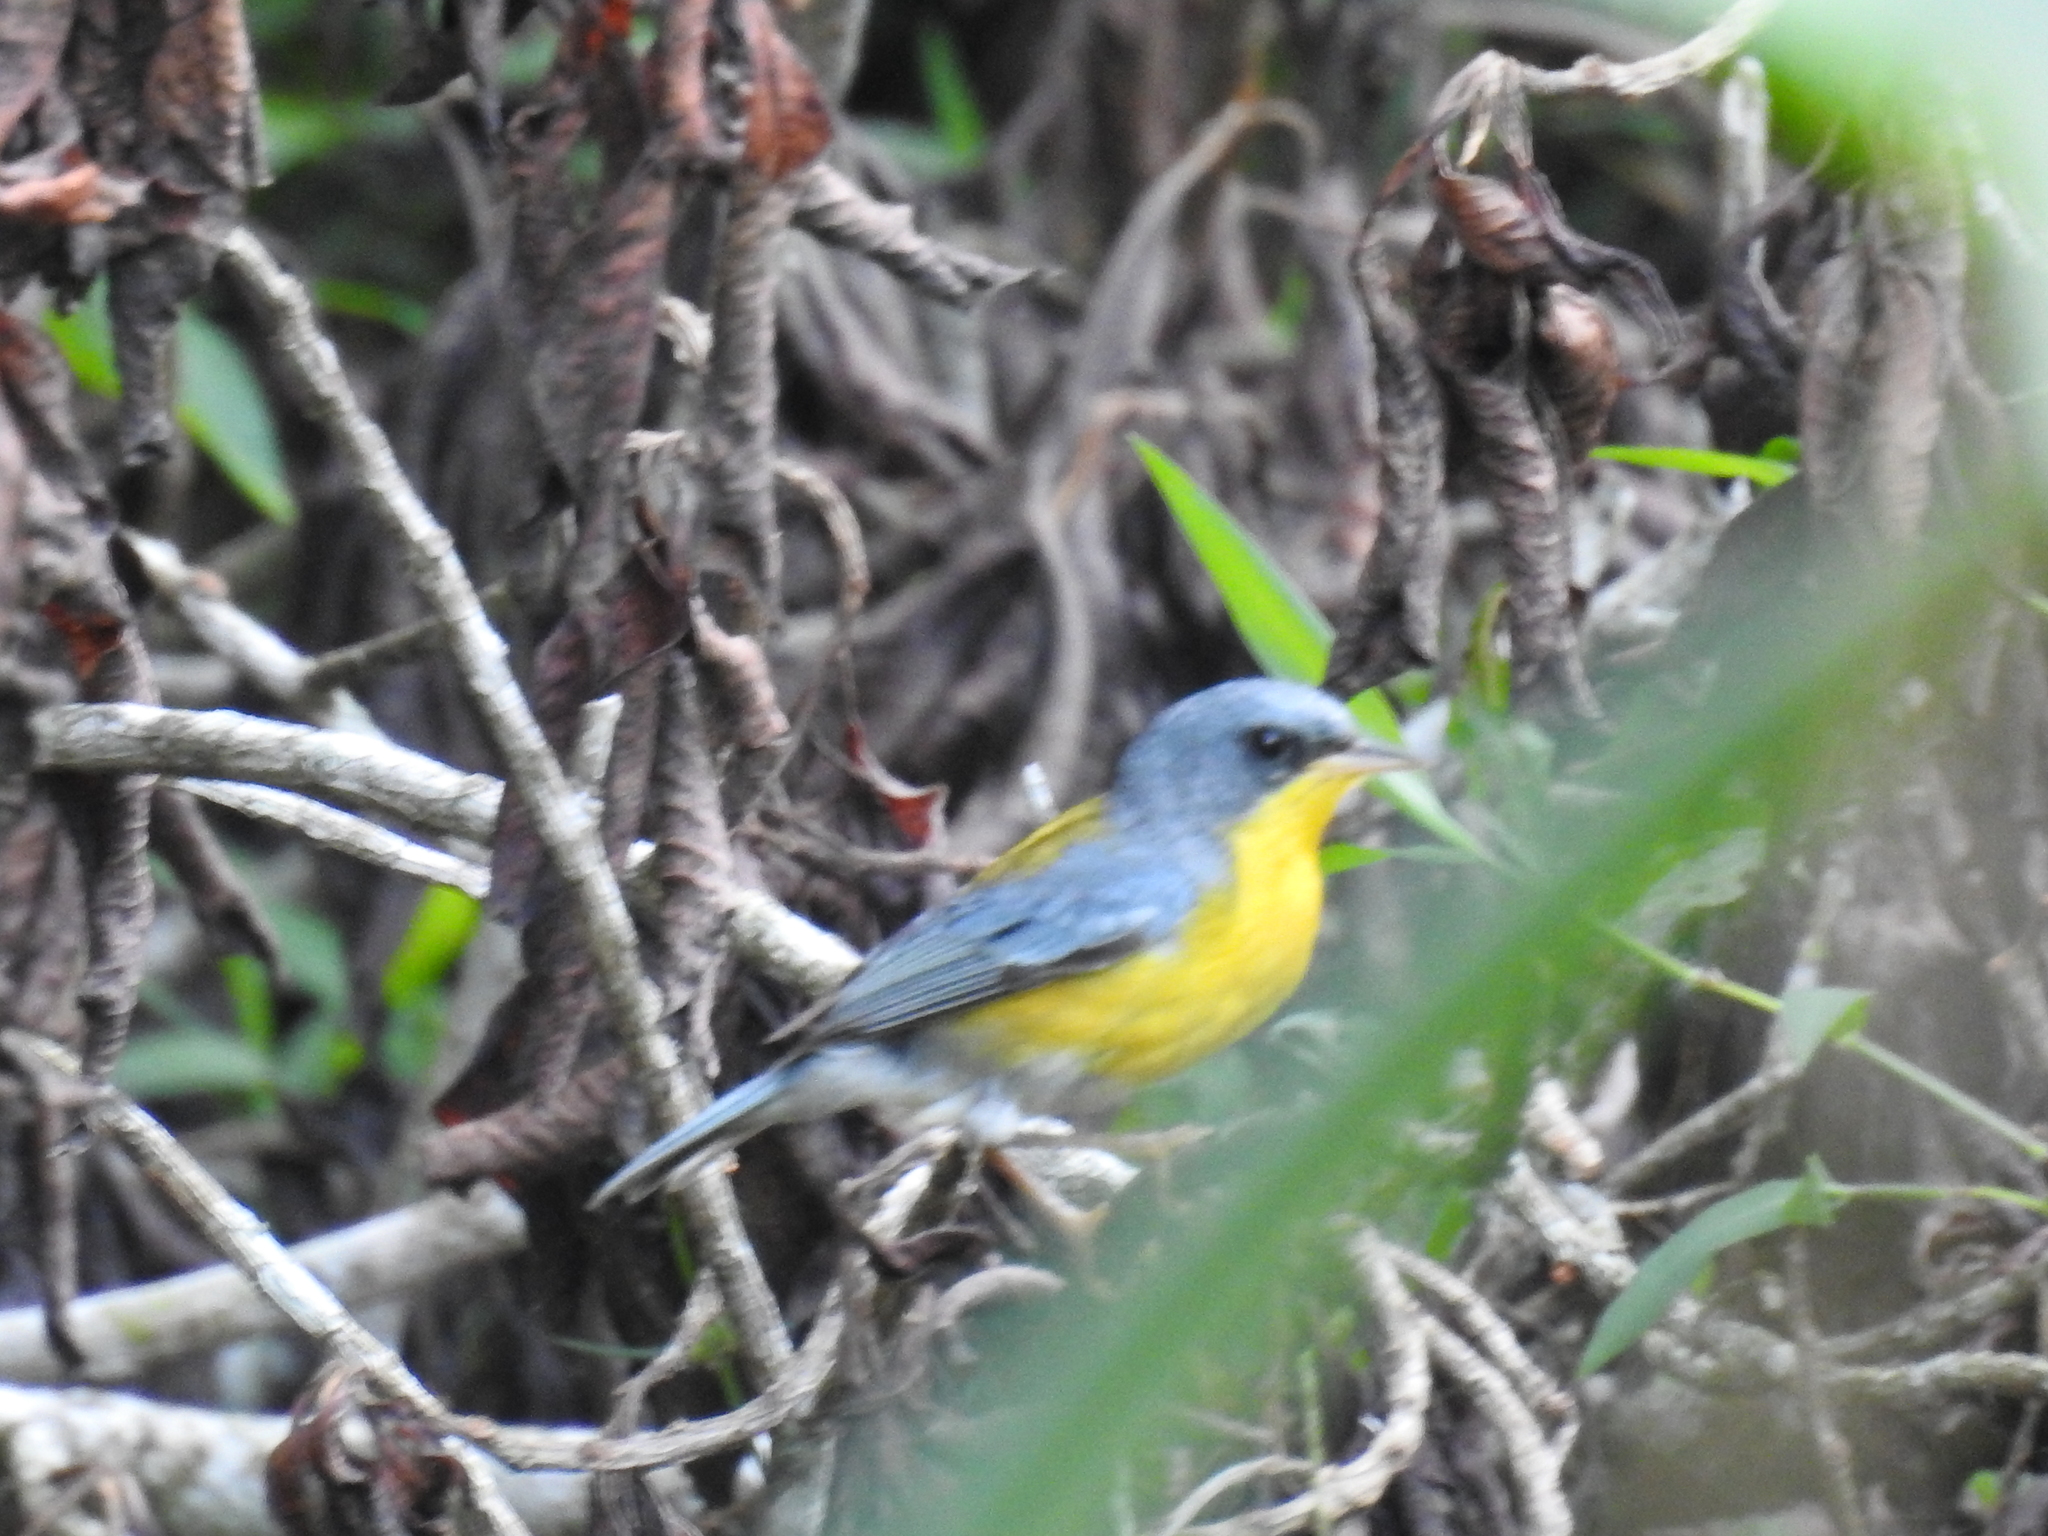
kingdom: Animalia
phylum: Chordata
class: Aves
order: Passeriformes
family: Parulidae
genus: Setophaga
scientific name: Setophaga pitiayumi
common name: Tropical parula
